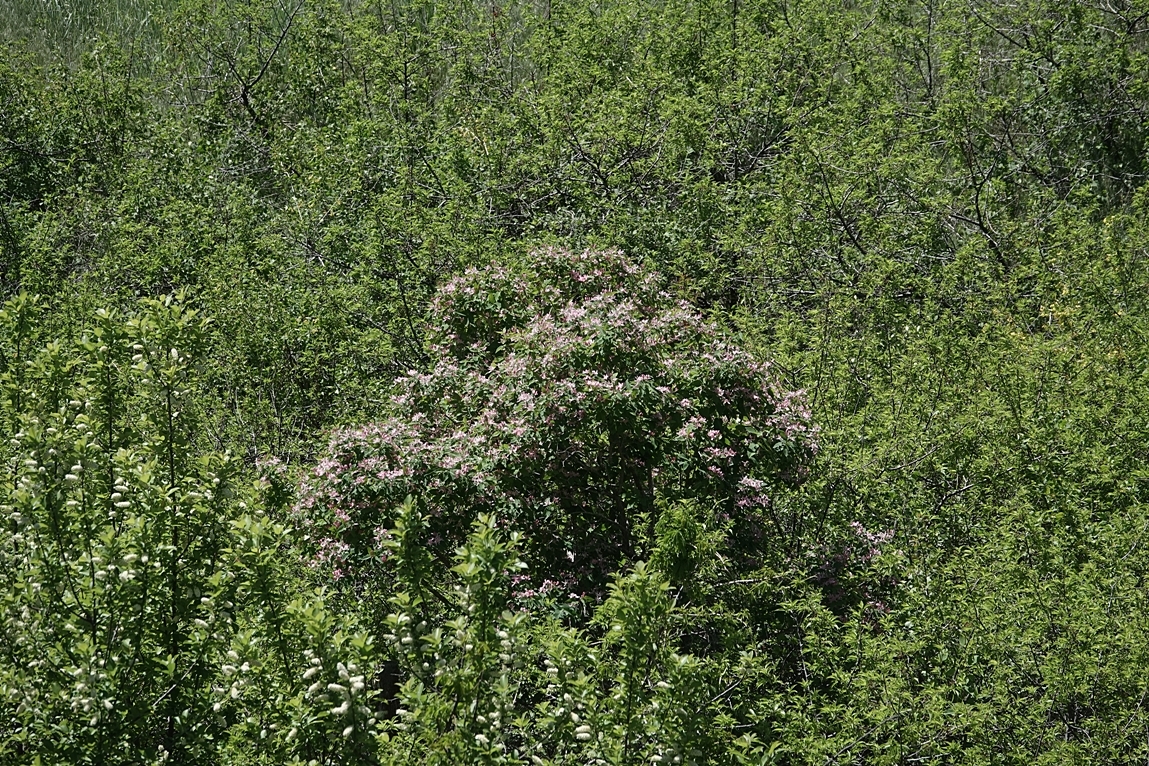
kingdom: Plantae
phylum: Tracheophyta
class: Magnoliopsida
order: Dipsacales
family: Caprifoliaceae
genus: Lonicera
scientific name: Lonicera tatarica
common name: Tatarian honeysuckle
